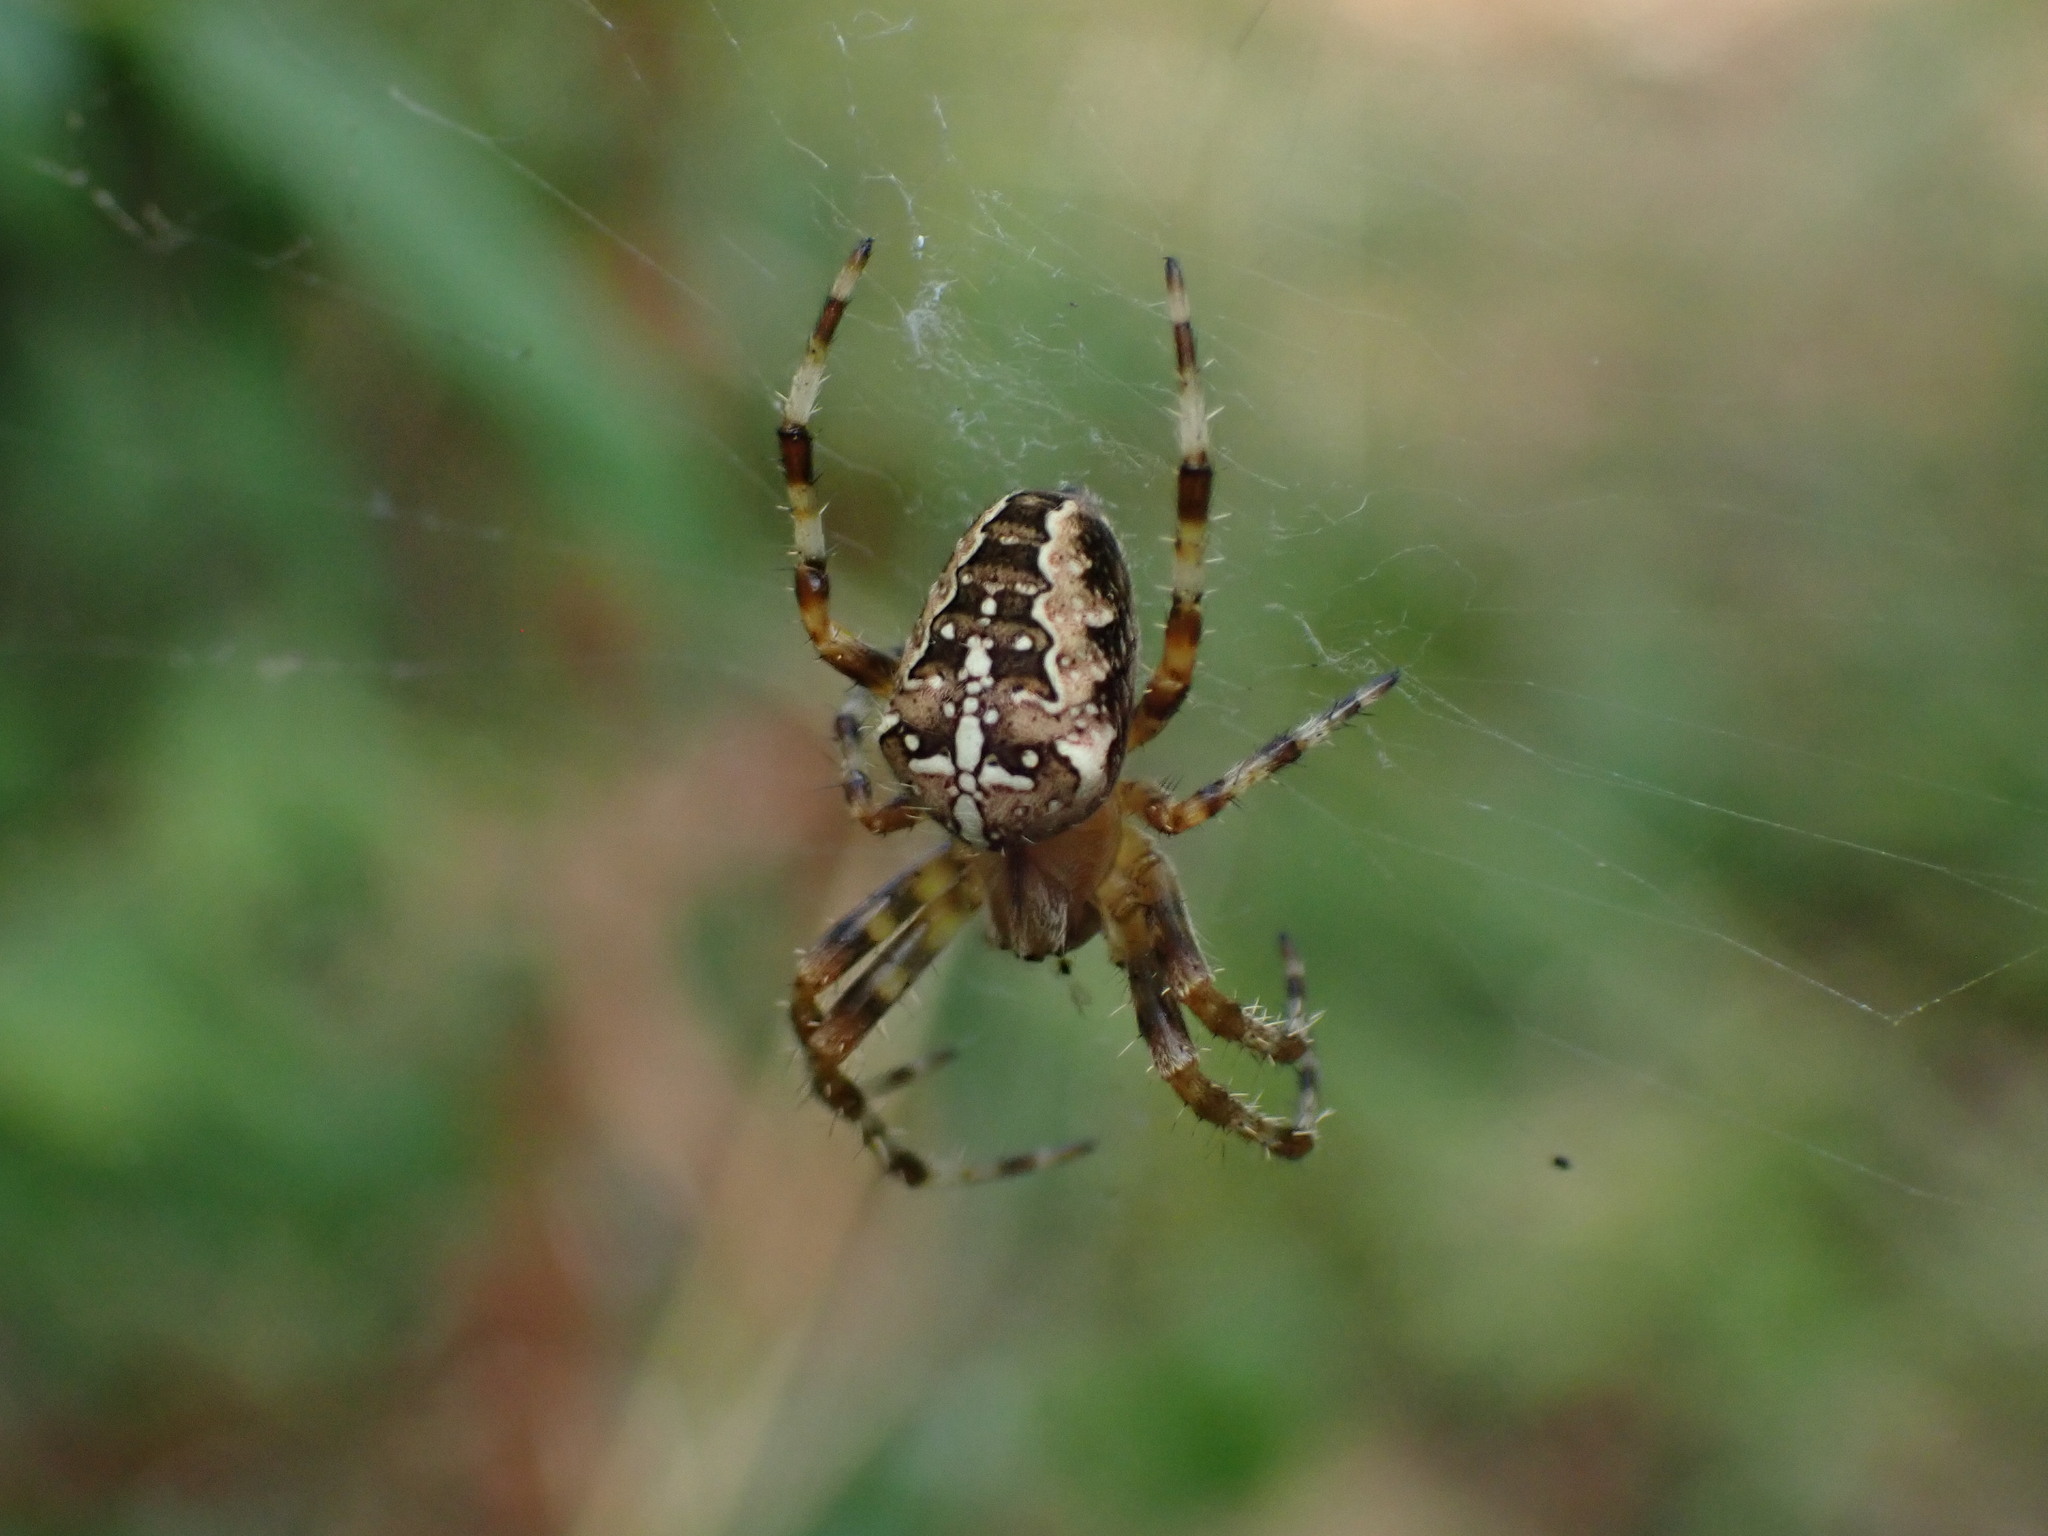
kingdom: Animalia
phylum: Arthropoda
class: Arachnida
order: Araneae
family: Araneidae
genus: Araneus
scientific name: Araneus diadematus
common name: Cross orbweaver
